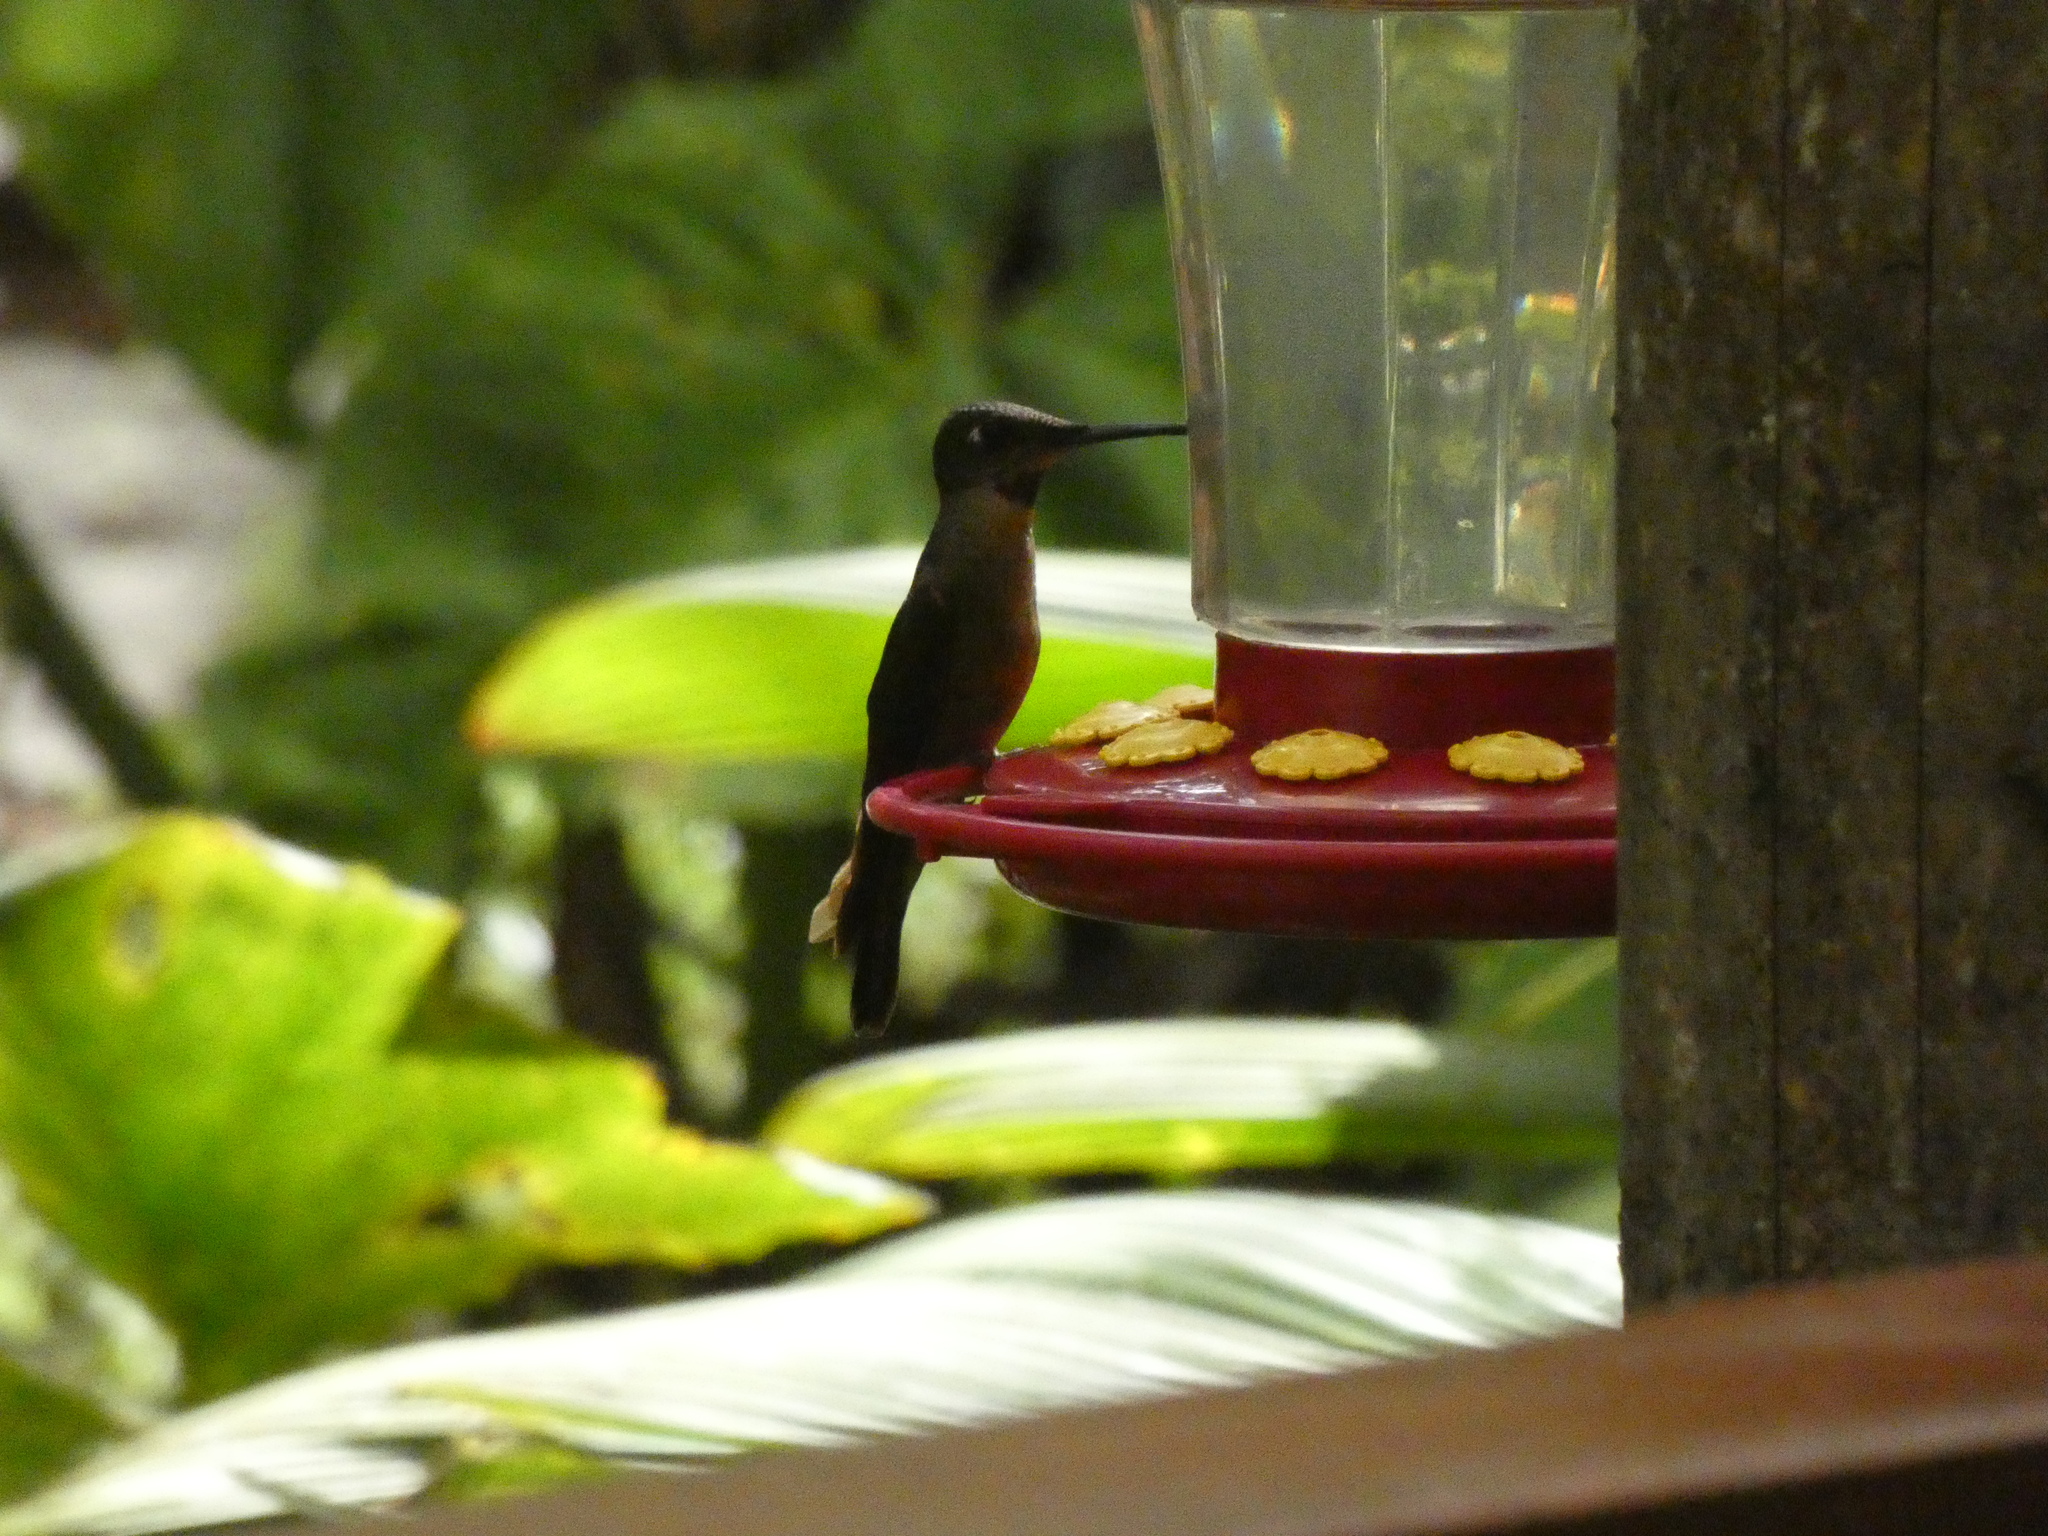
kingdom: Animalia
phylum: Chordata
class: Aves
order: Apodiformes
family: Trochilidae
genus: Heliodoxa
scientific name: Heliodoxa rubinoides
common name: Fawn-breasted brilliant
